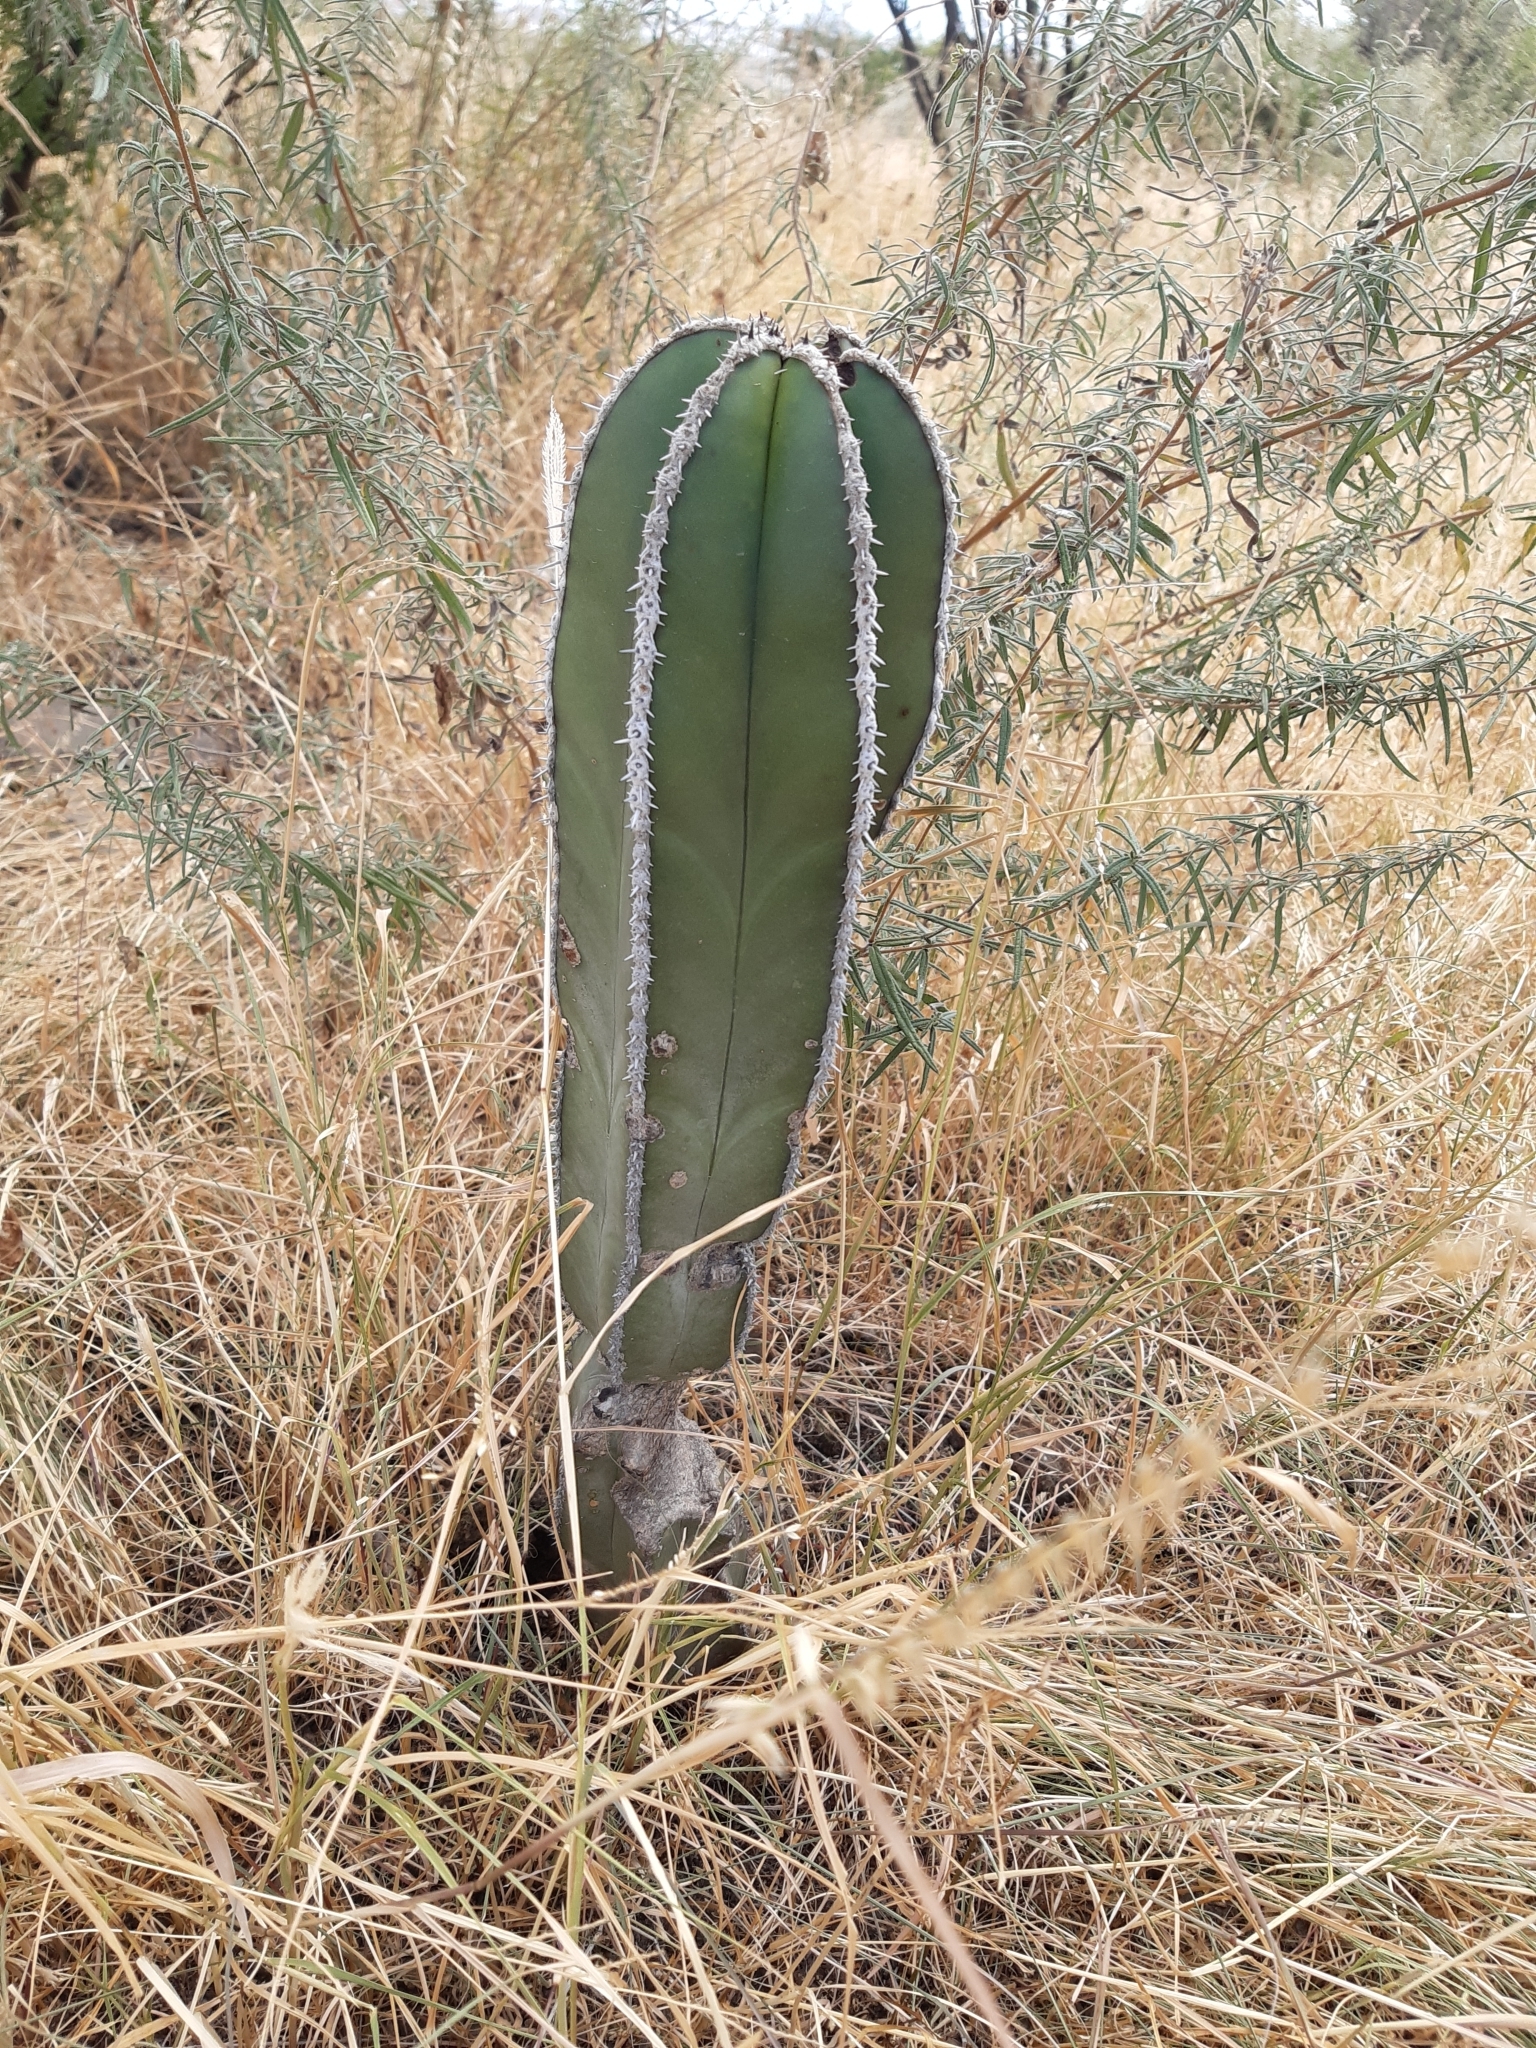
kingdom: Plantae
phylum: Tracheophyta
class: Magnoliopsida
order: Caryophyllales
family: Cactaceae
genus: Marginatocereus
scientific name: Marginatocereus marginatus
